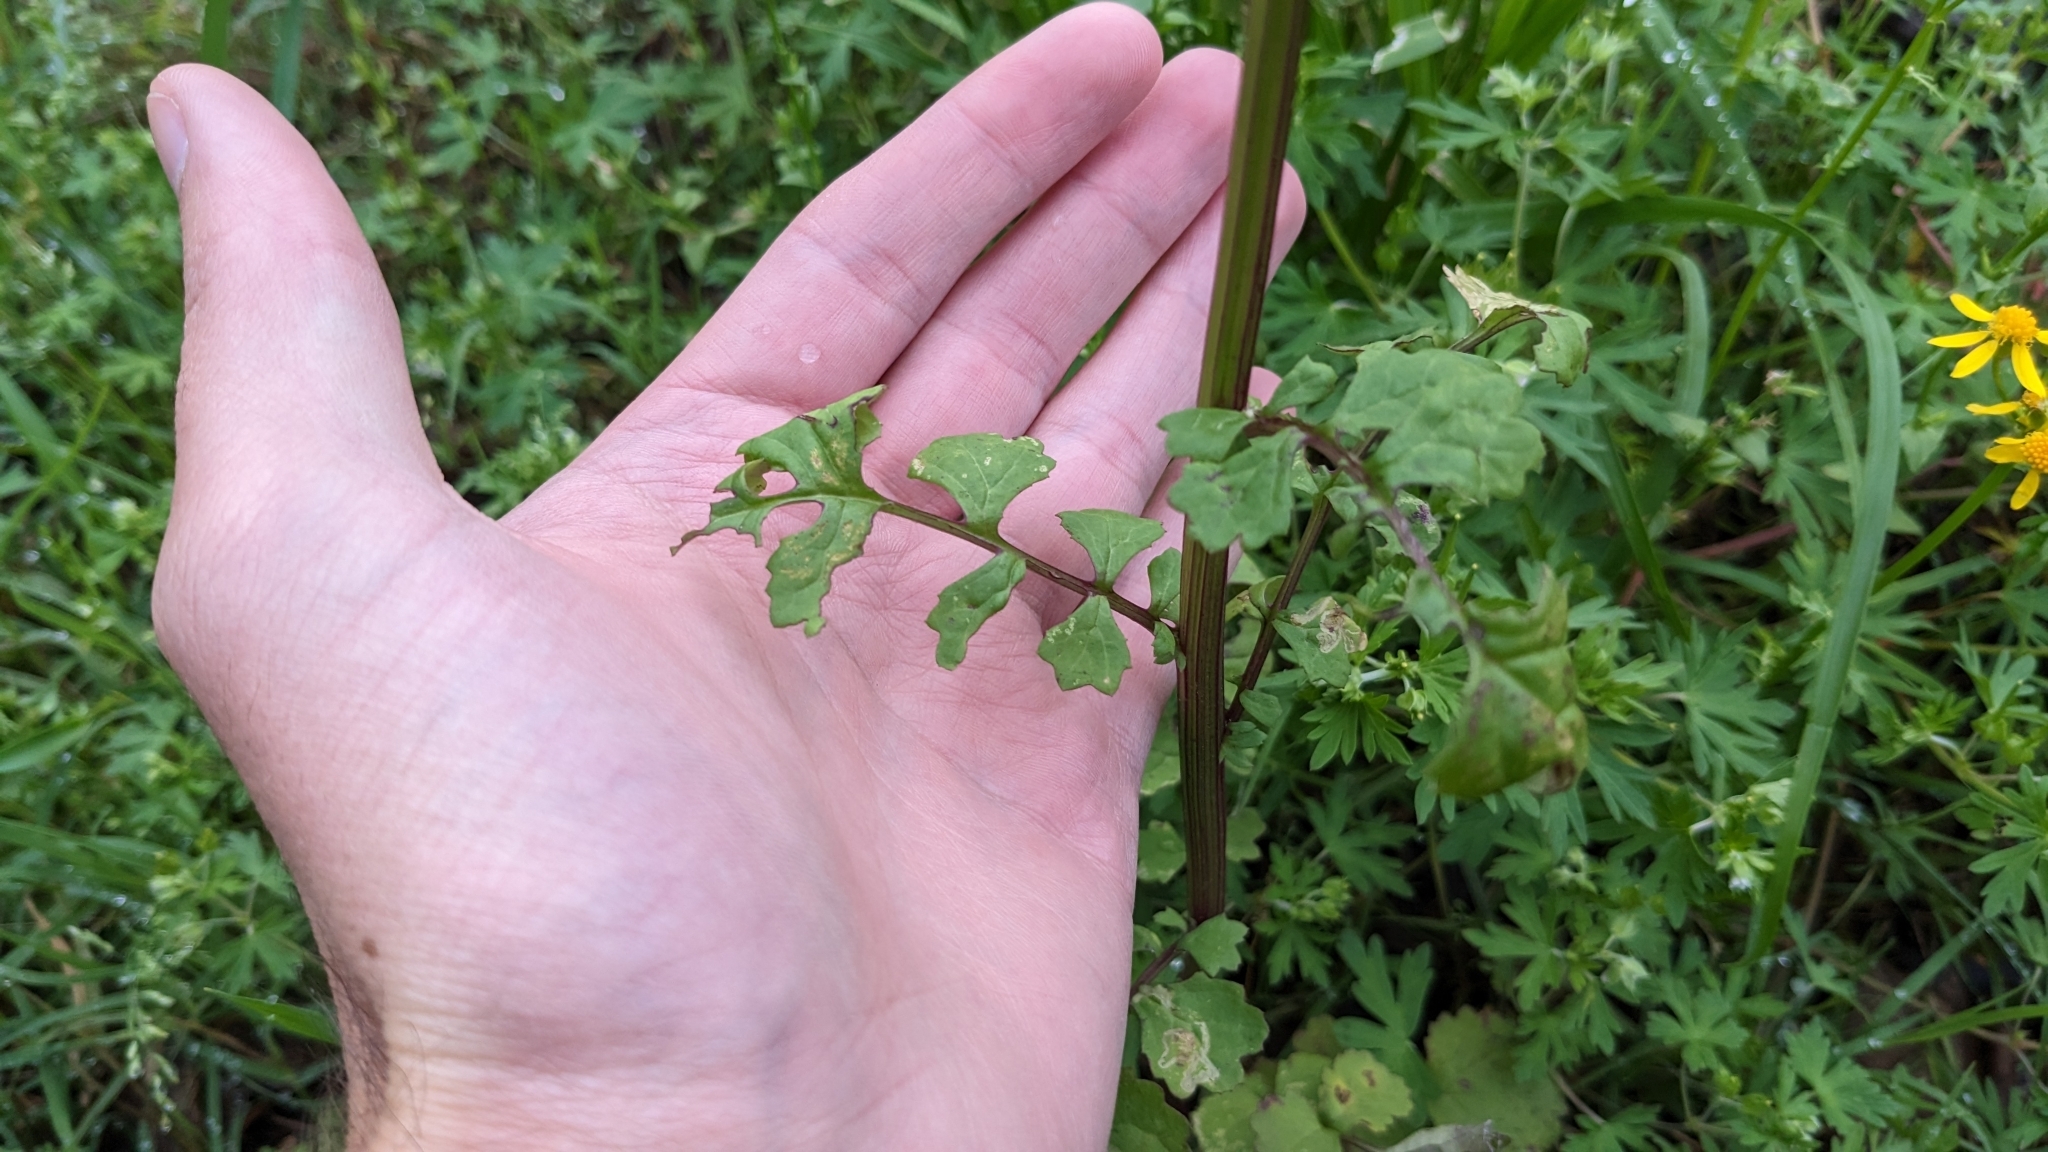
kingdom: Plantae
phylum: Tracheophyta
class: Magnoliopsida
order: Asterales
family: Asteraceae
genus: Packera
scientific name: Packera glabella
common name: Butterweed
